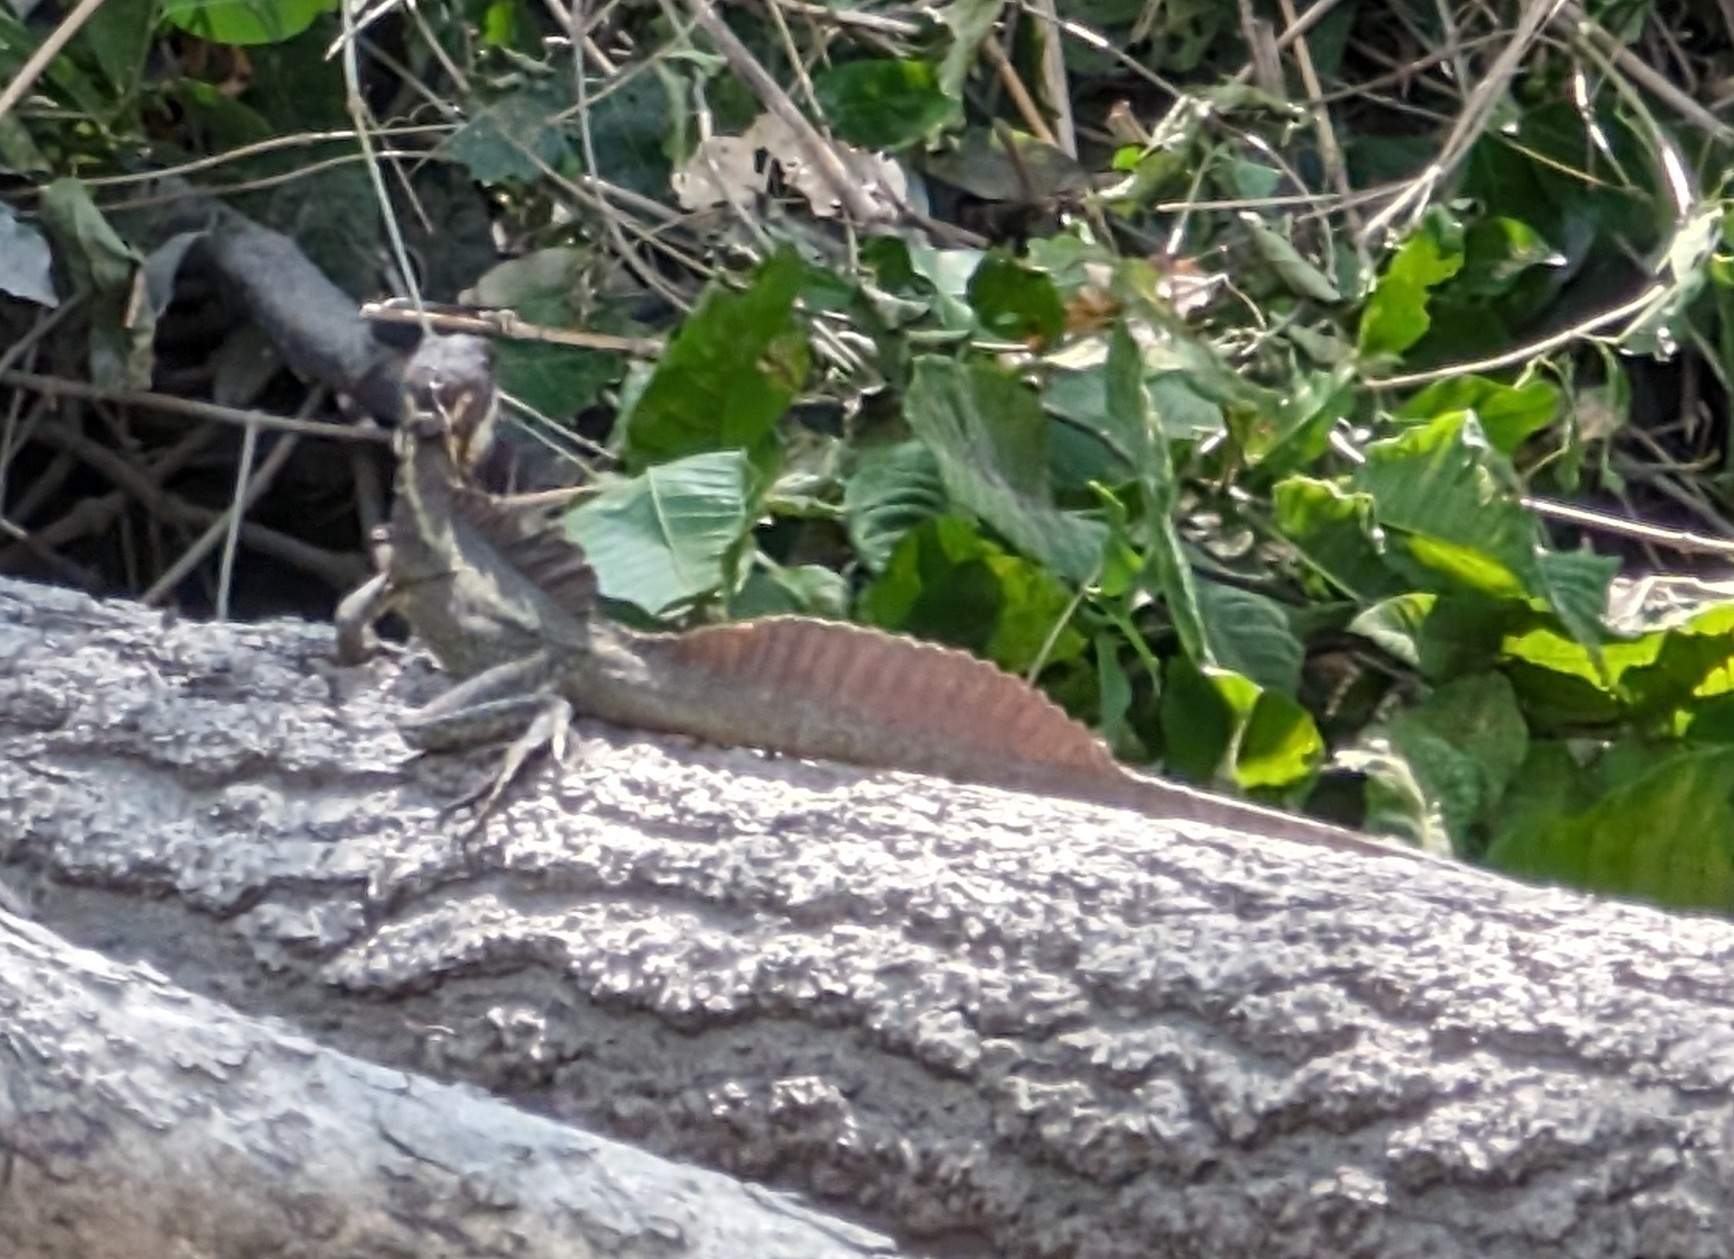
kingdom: Animalia
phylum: Chordata
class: Squamata
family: Corytophanidae
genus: Basiliscus
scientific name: Basiliscus basiliscus
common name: Common basilisk
